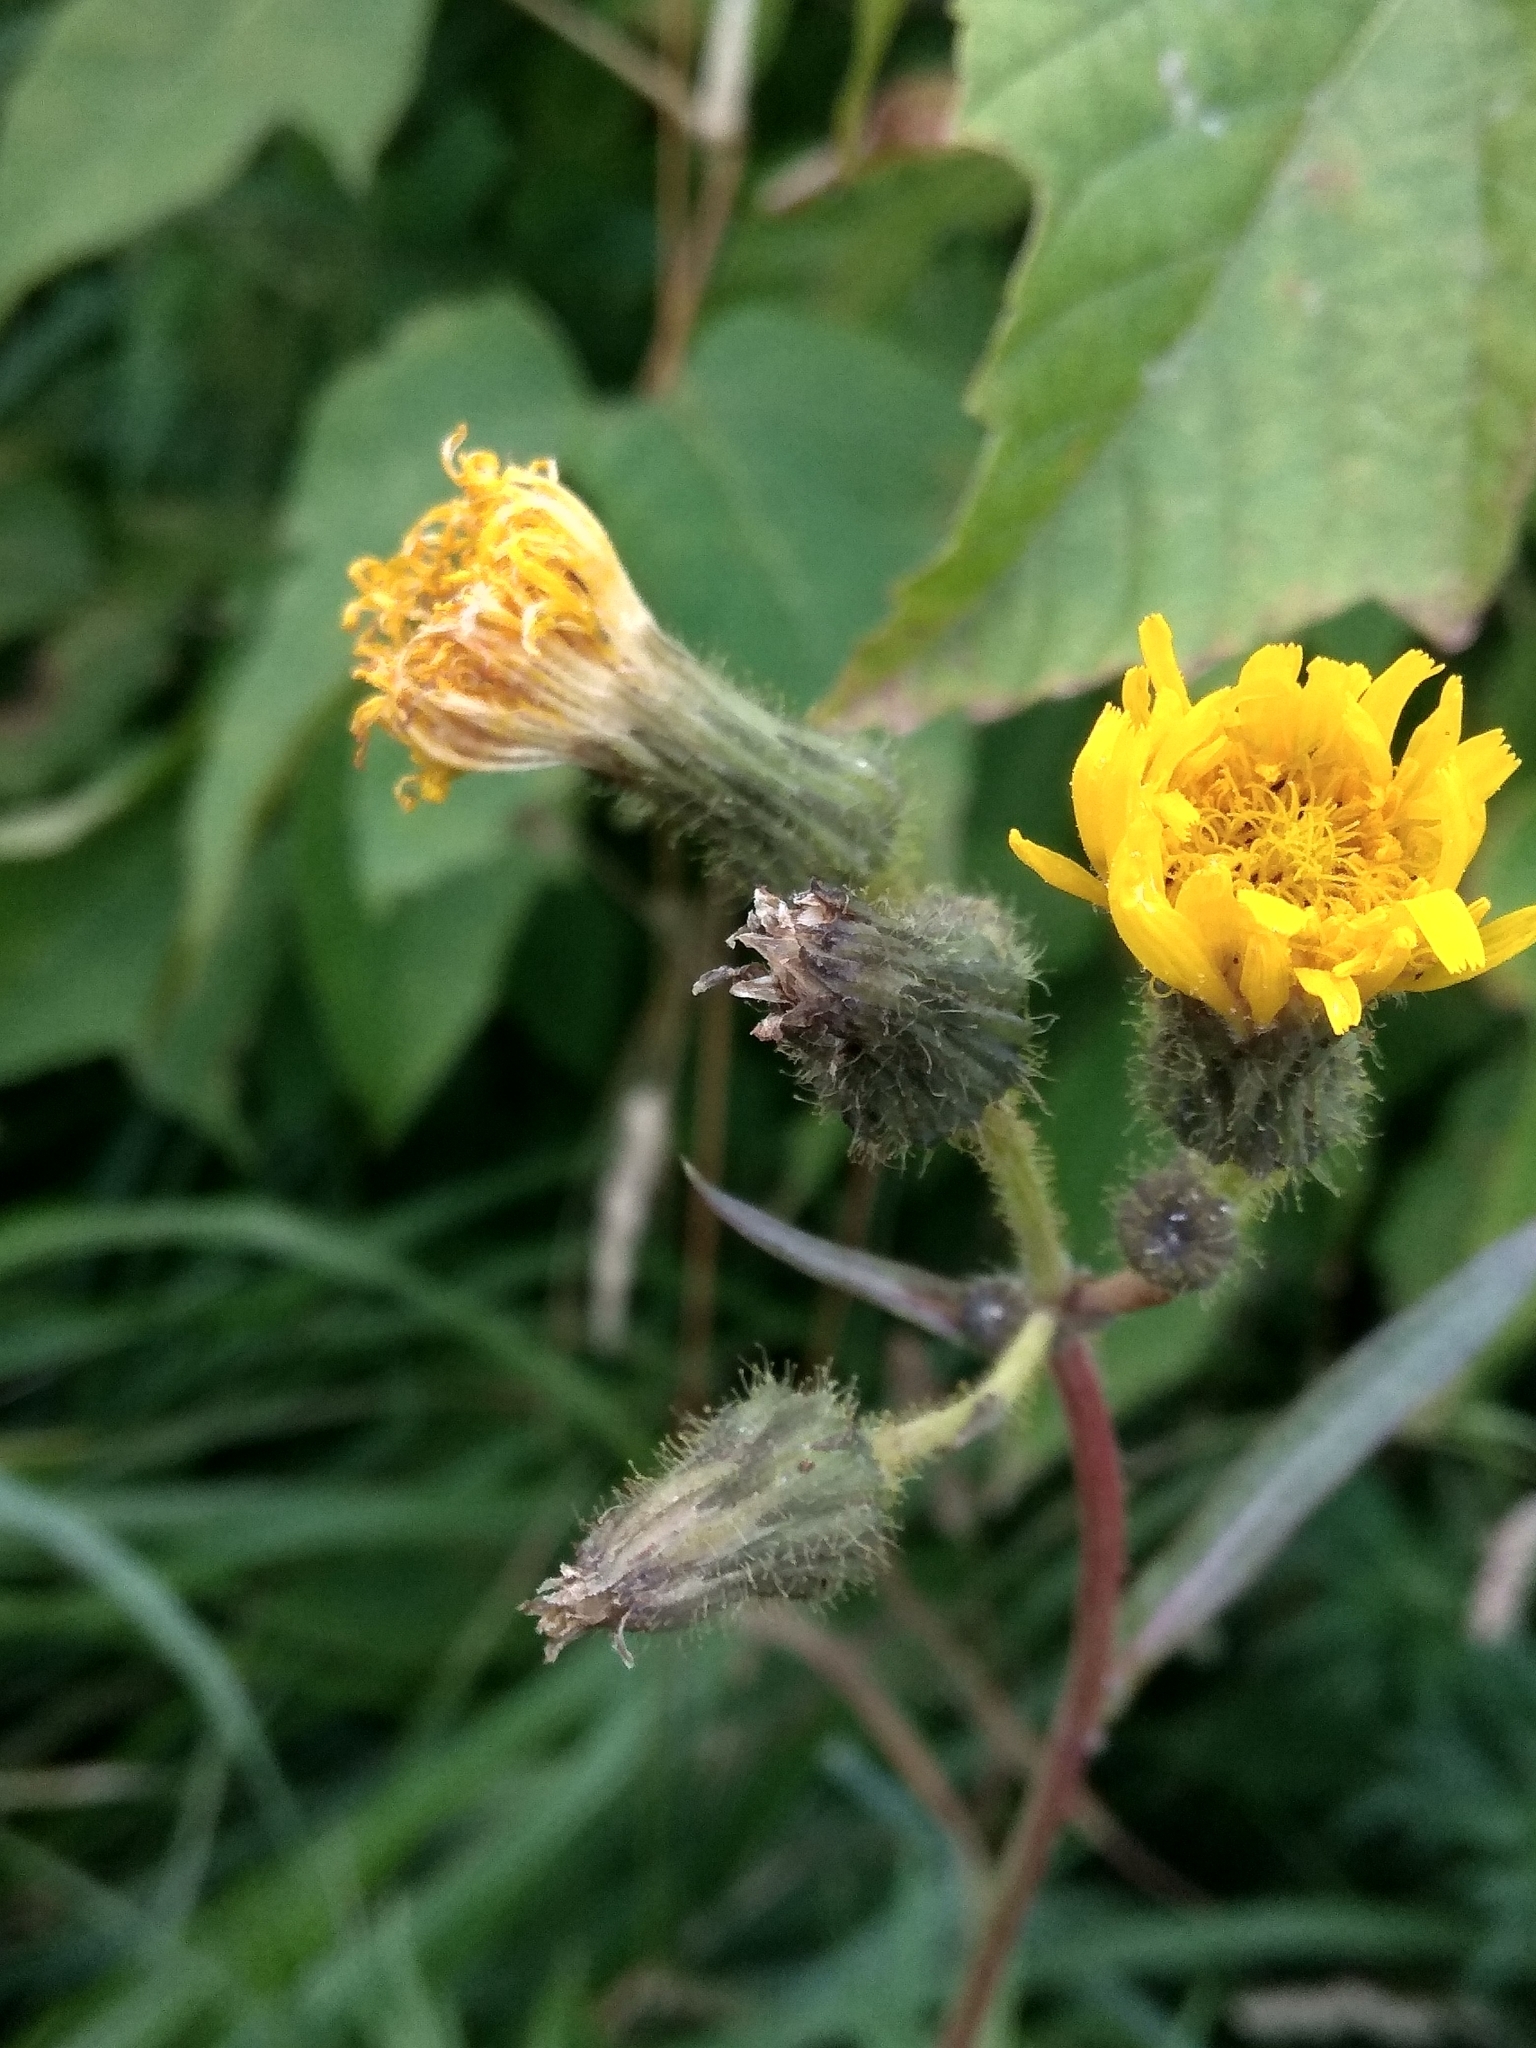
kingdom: Plantae
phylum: Tracheophyta
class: Magnoliopsida
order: Asterales
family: Asteraceae
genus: Sonchus
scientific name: Sonchus arvensis
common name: Perennial sow-thistle
